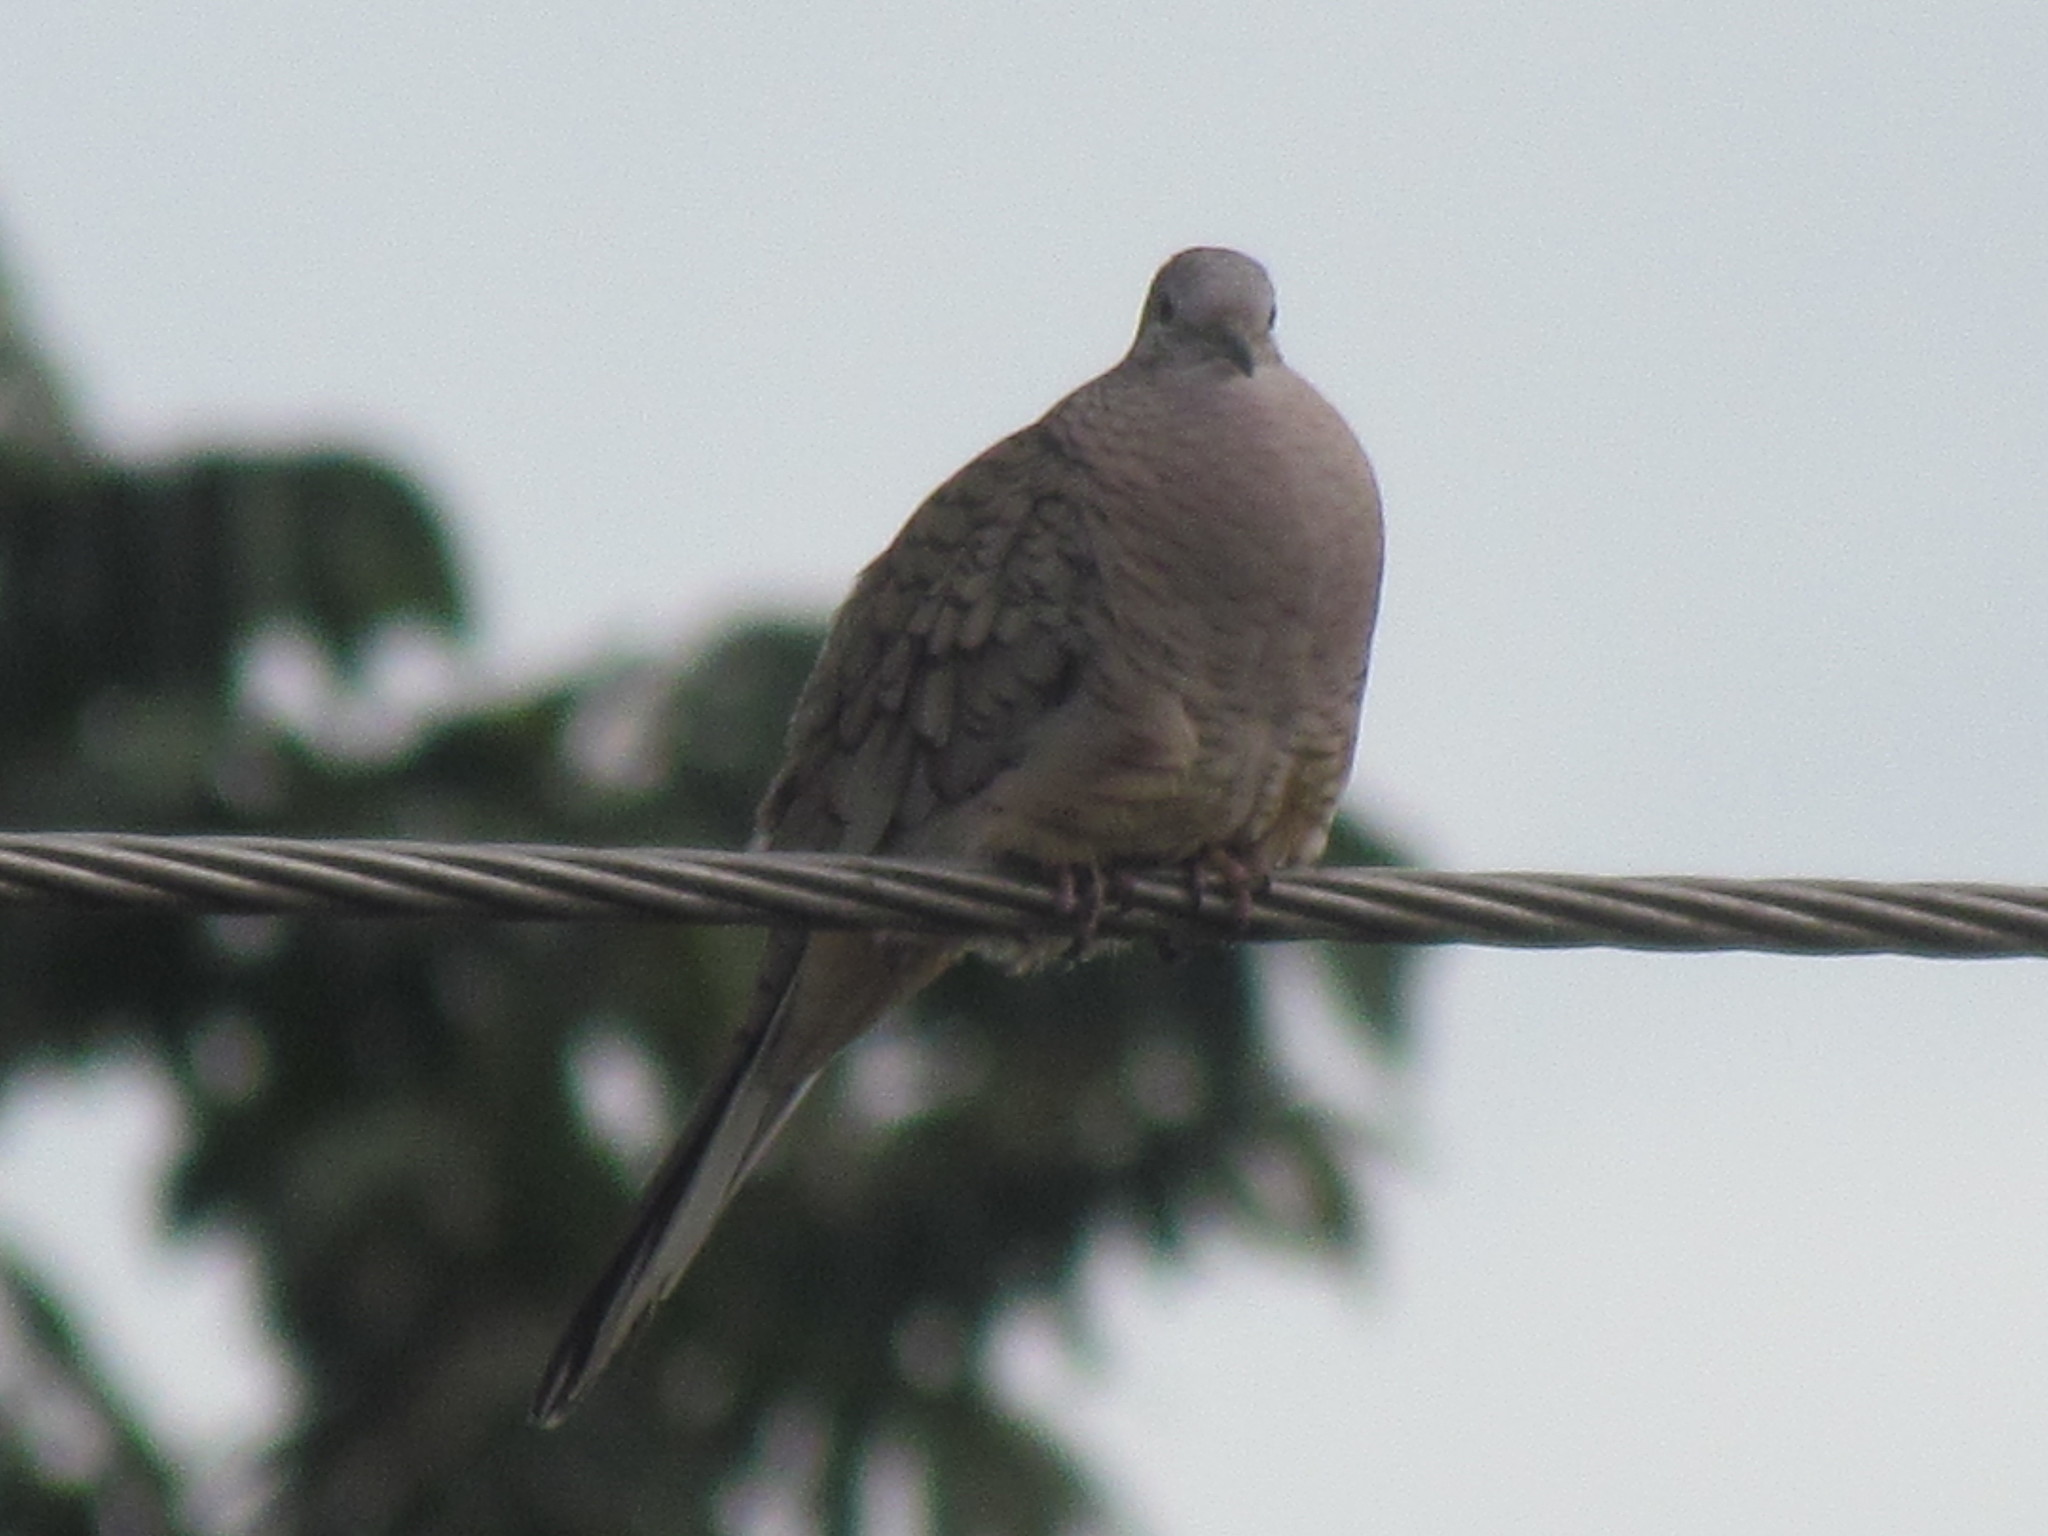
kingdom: Animalia
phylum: Chordata
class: Aves
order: Columbiformes
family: Columbidae
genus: Columbina
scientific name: Columbina inca
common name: Inca dove
